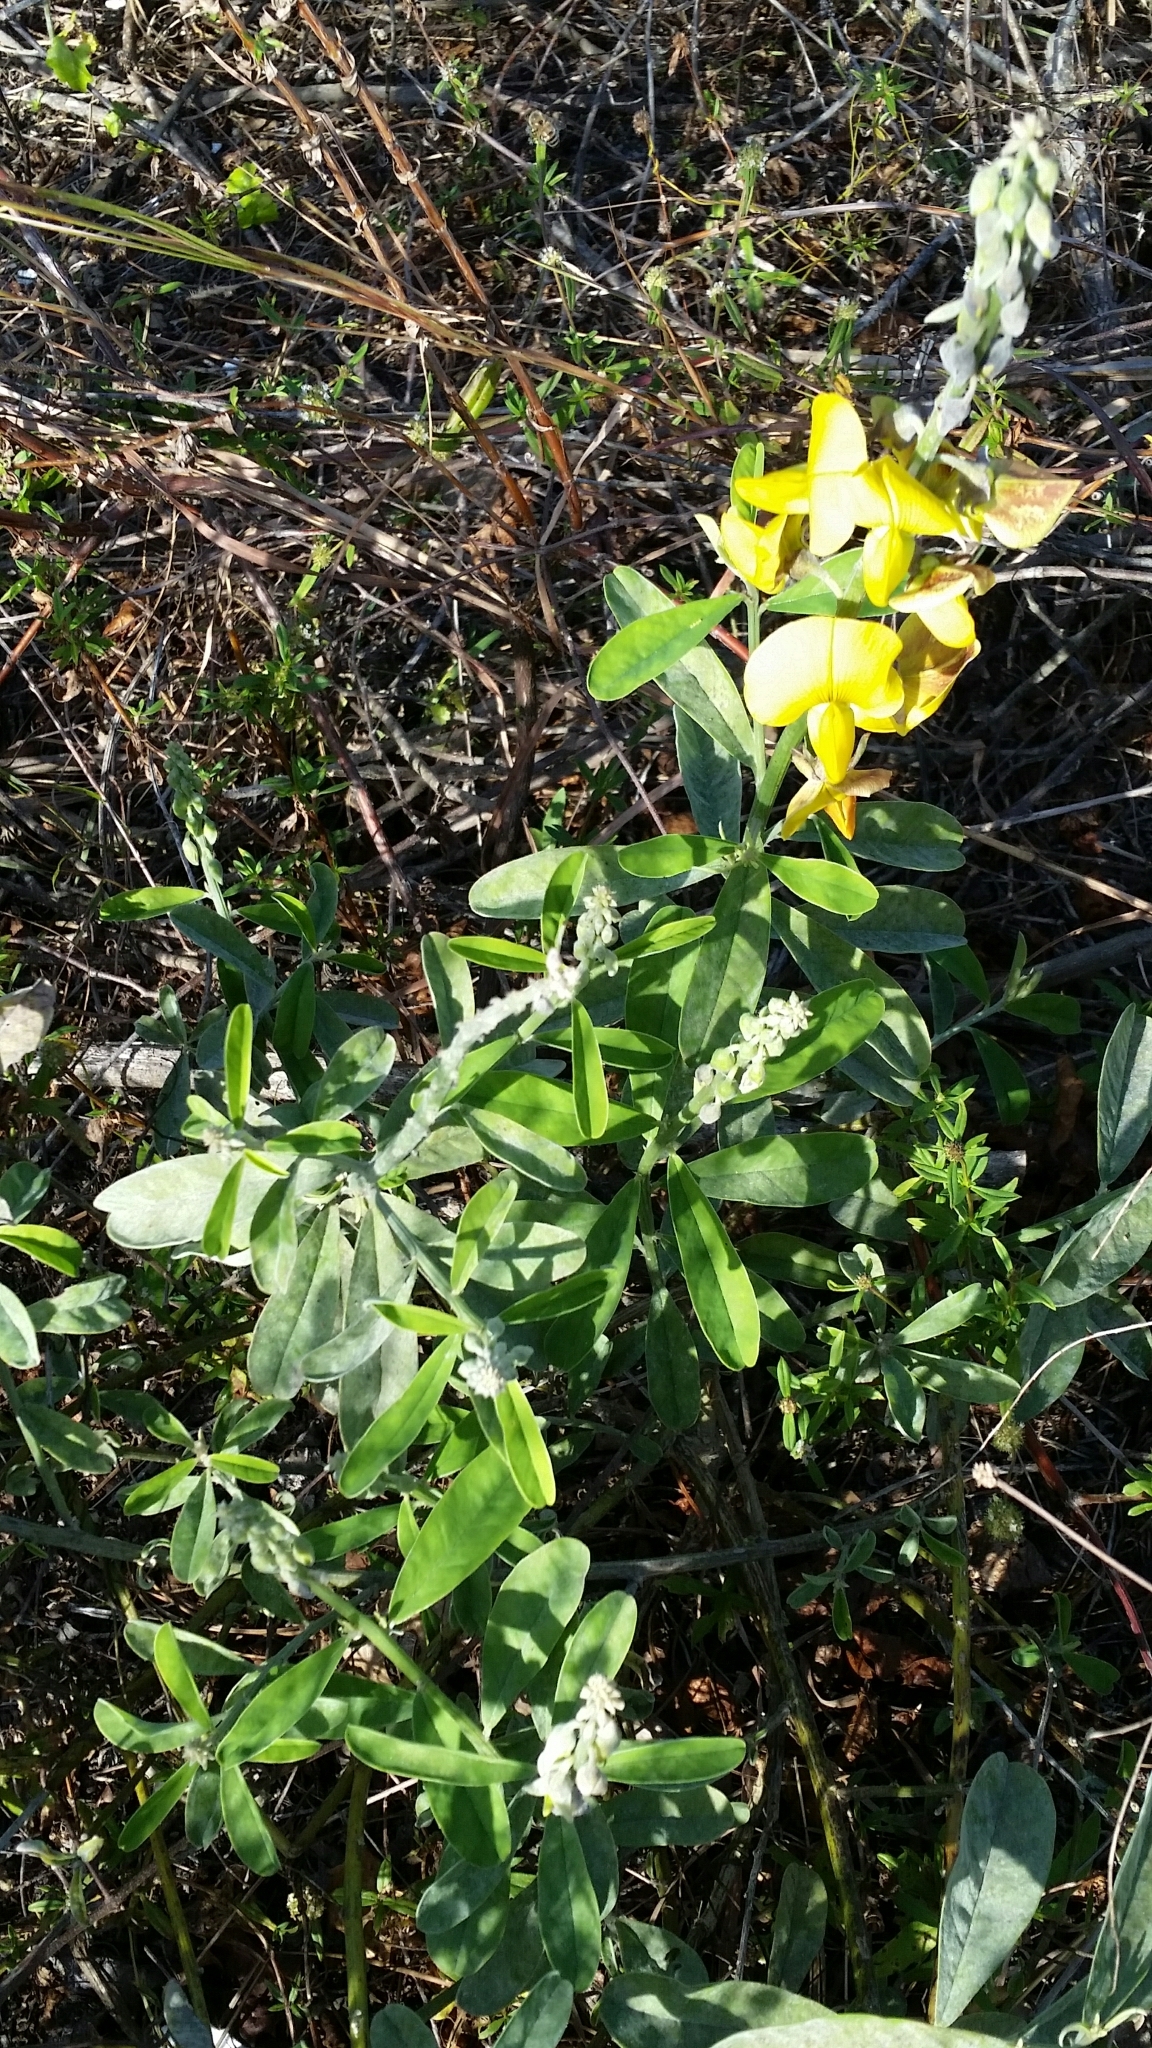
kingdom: Plantae
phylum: Tracheophyta
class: Magnoliopsida
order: Fabales
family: Fabaceae
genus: Crotalaria
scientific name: Crotalaria retusa
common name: Rattleweed
